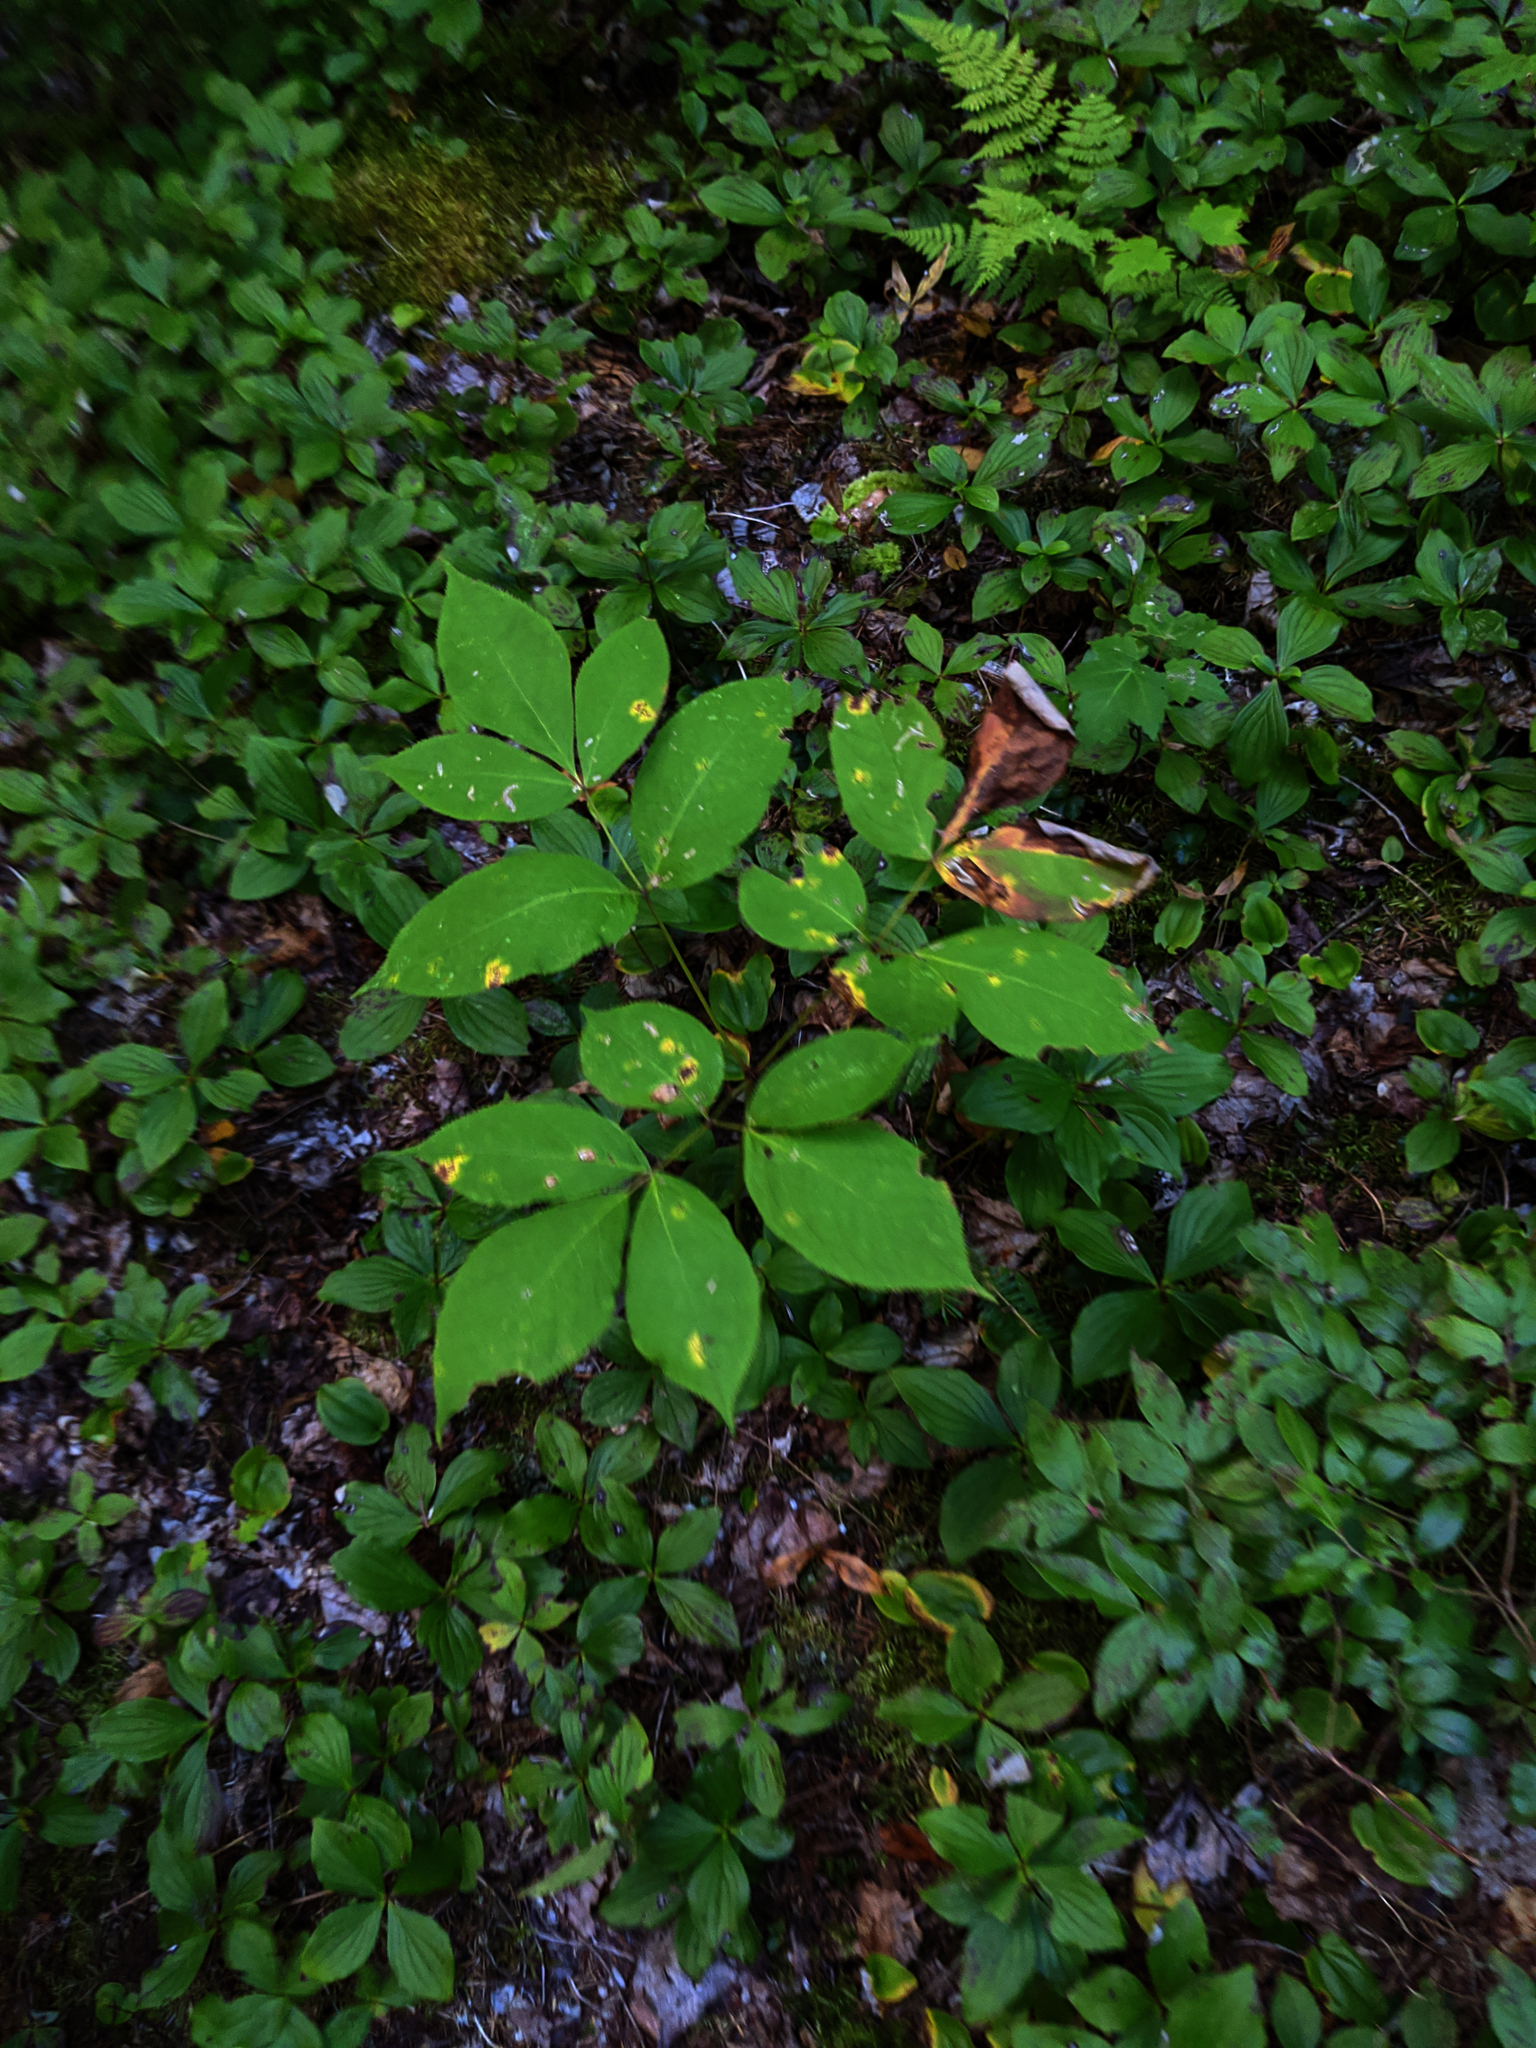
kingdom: Plantae
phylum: Tracheophyta
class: Magnoliopsida
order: Apiales
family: Araliaceae
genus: Aralia
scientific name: Aralia nudicaulis
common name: Wild sarsaparilla
